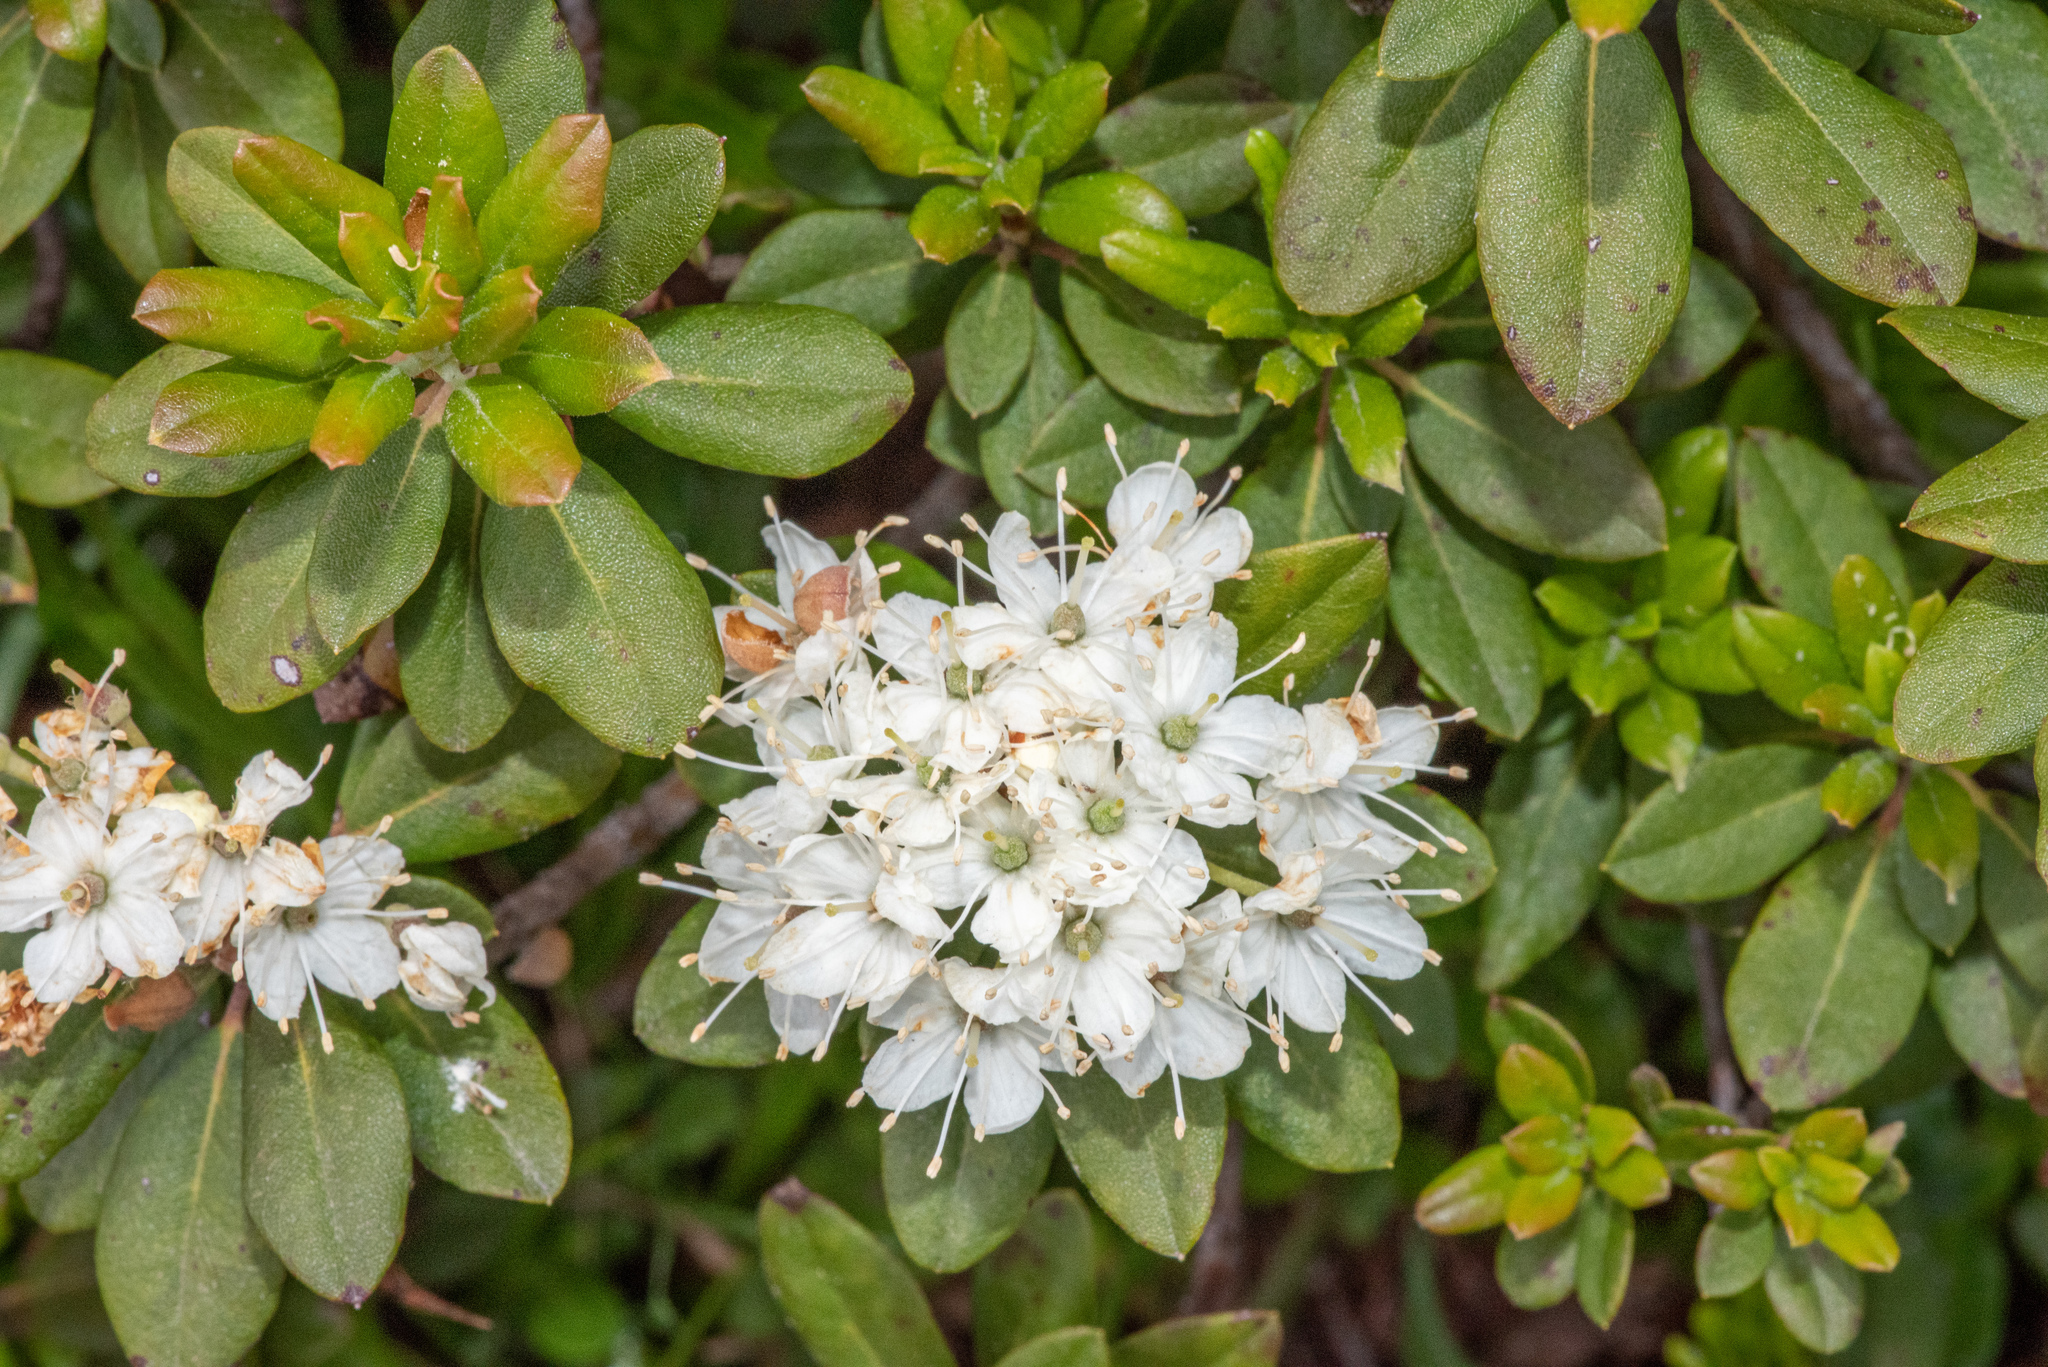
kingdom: Plantae
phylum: Tracheophyta
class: Magnoliopsida
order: Ericales
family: Ericaceae
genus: Rhododendron
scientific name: Rhododendron columbianum
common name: Western labrador tea
